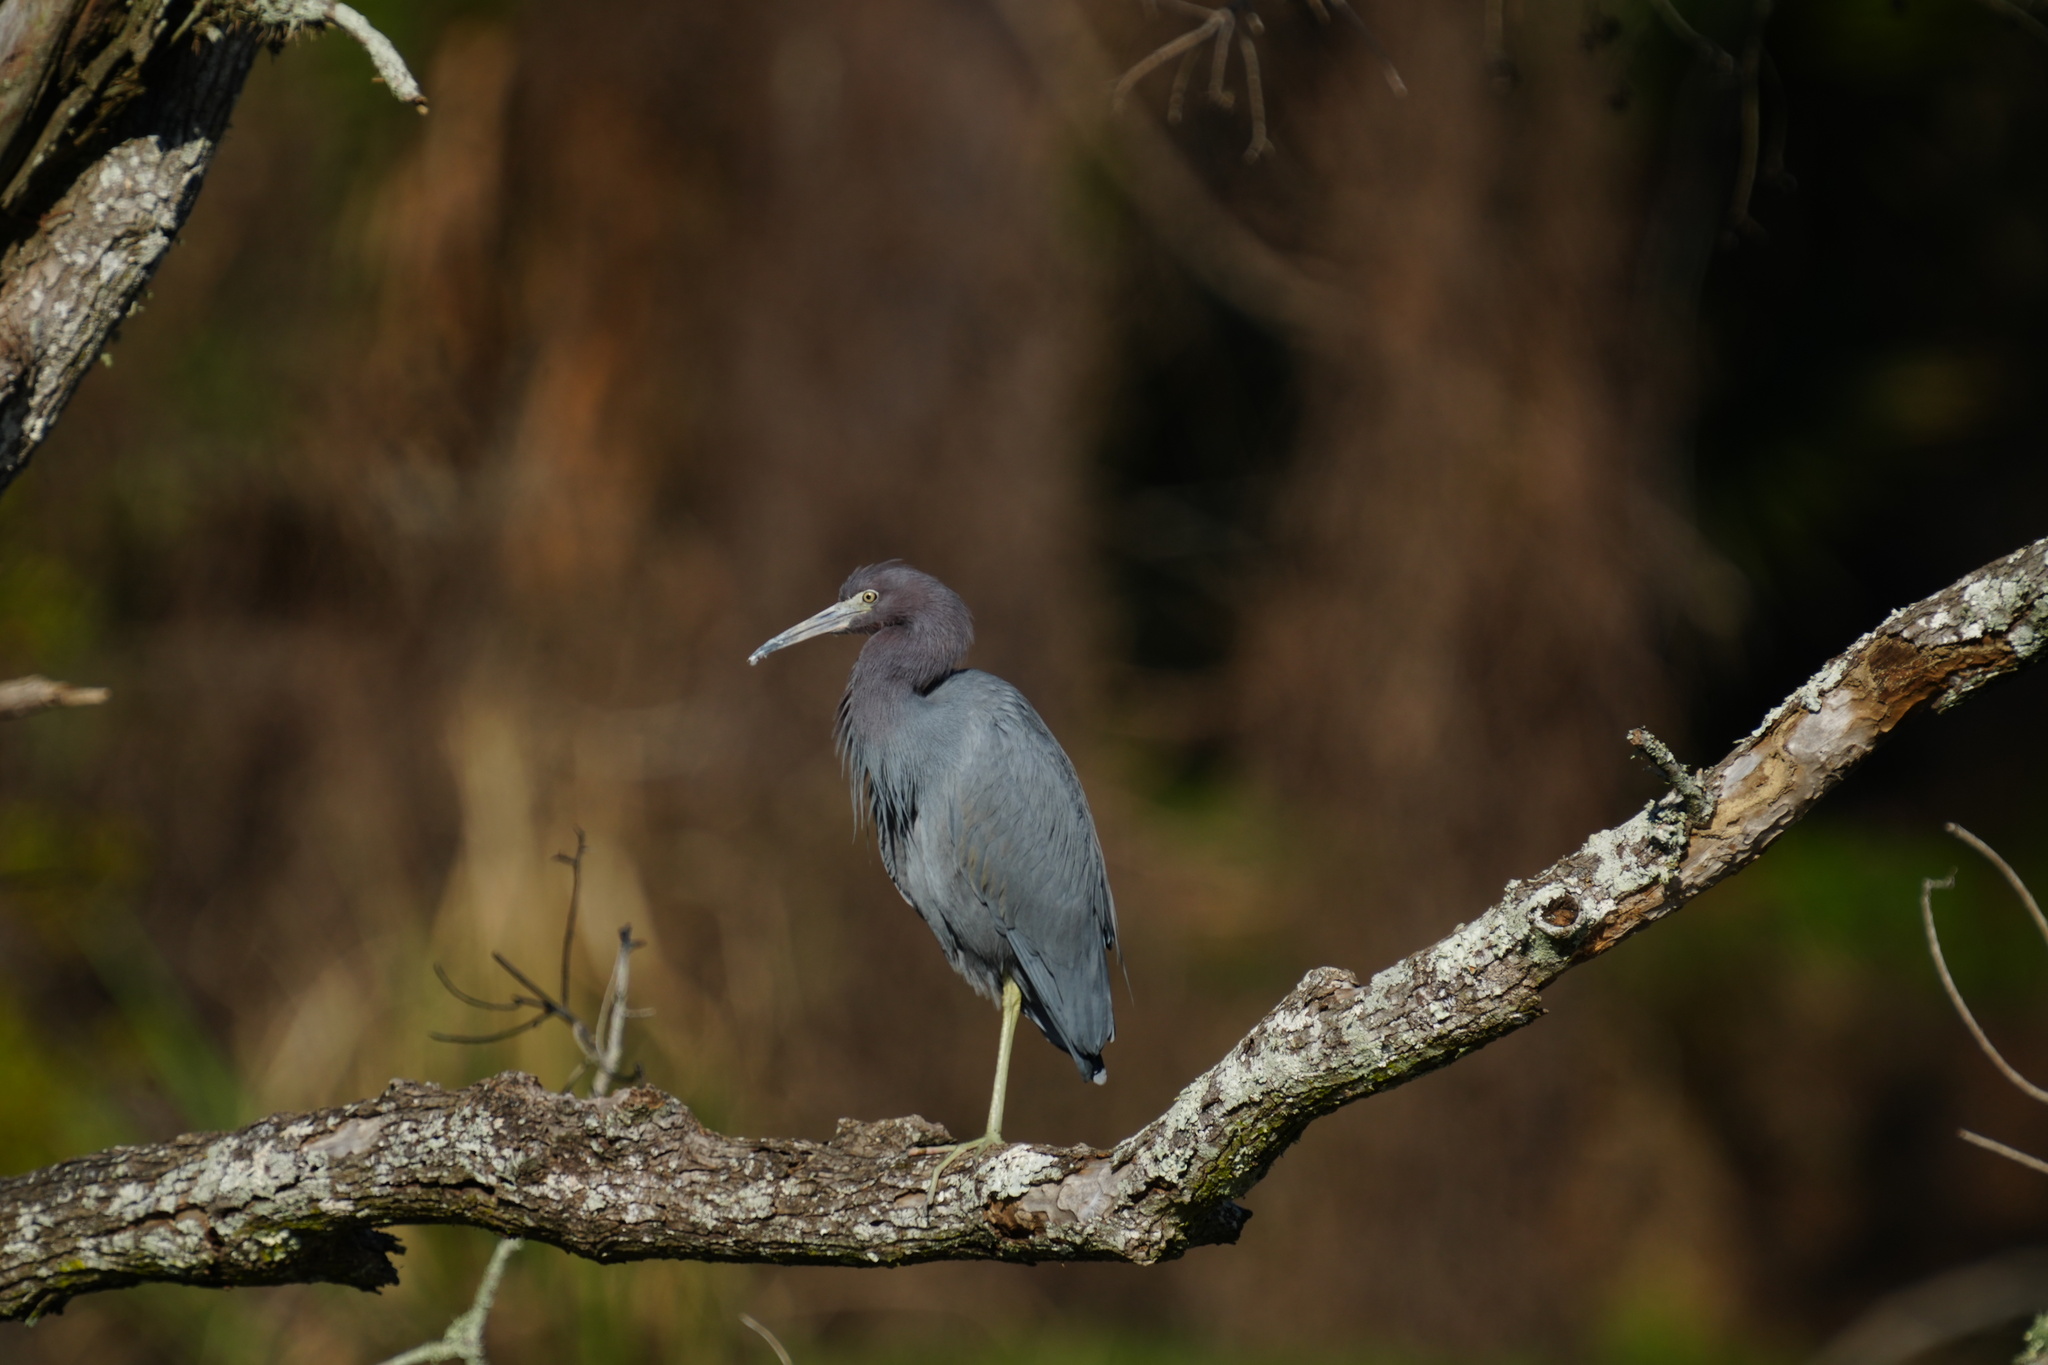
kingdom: Animalia
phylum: Chordata
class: Aves
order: Pelecaniformes
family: Ardeidae
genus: Egretta
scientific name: Egretta caerulea
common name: Little blue heron
